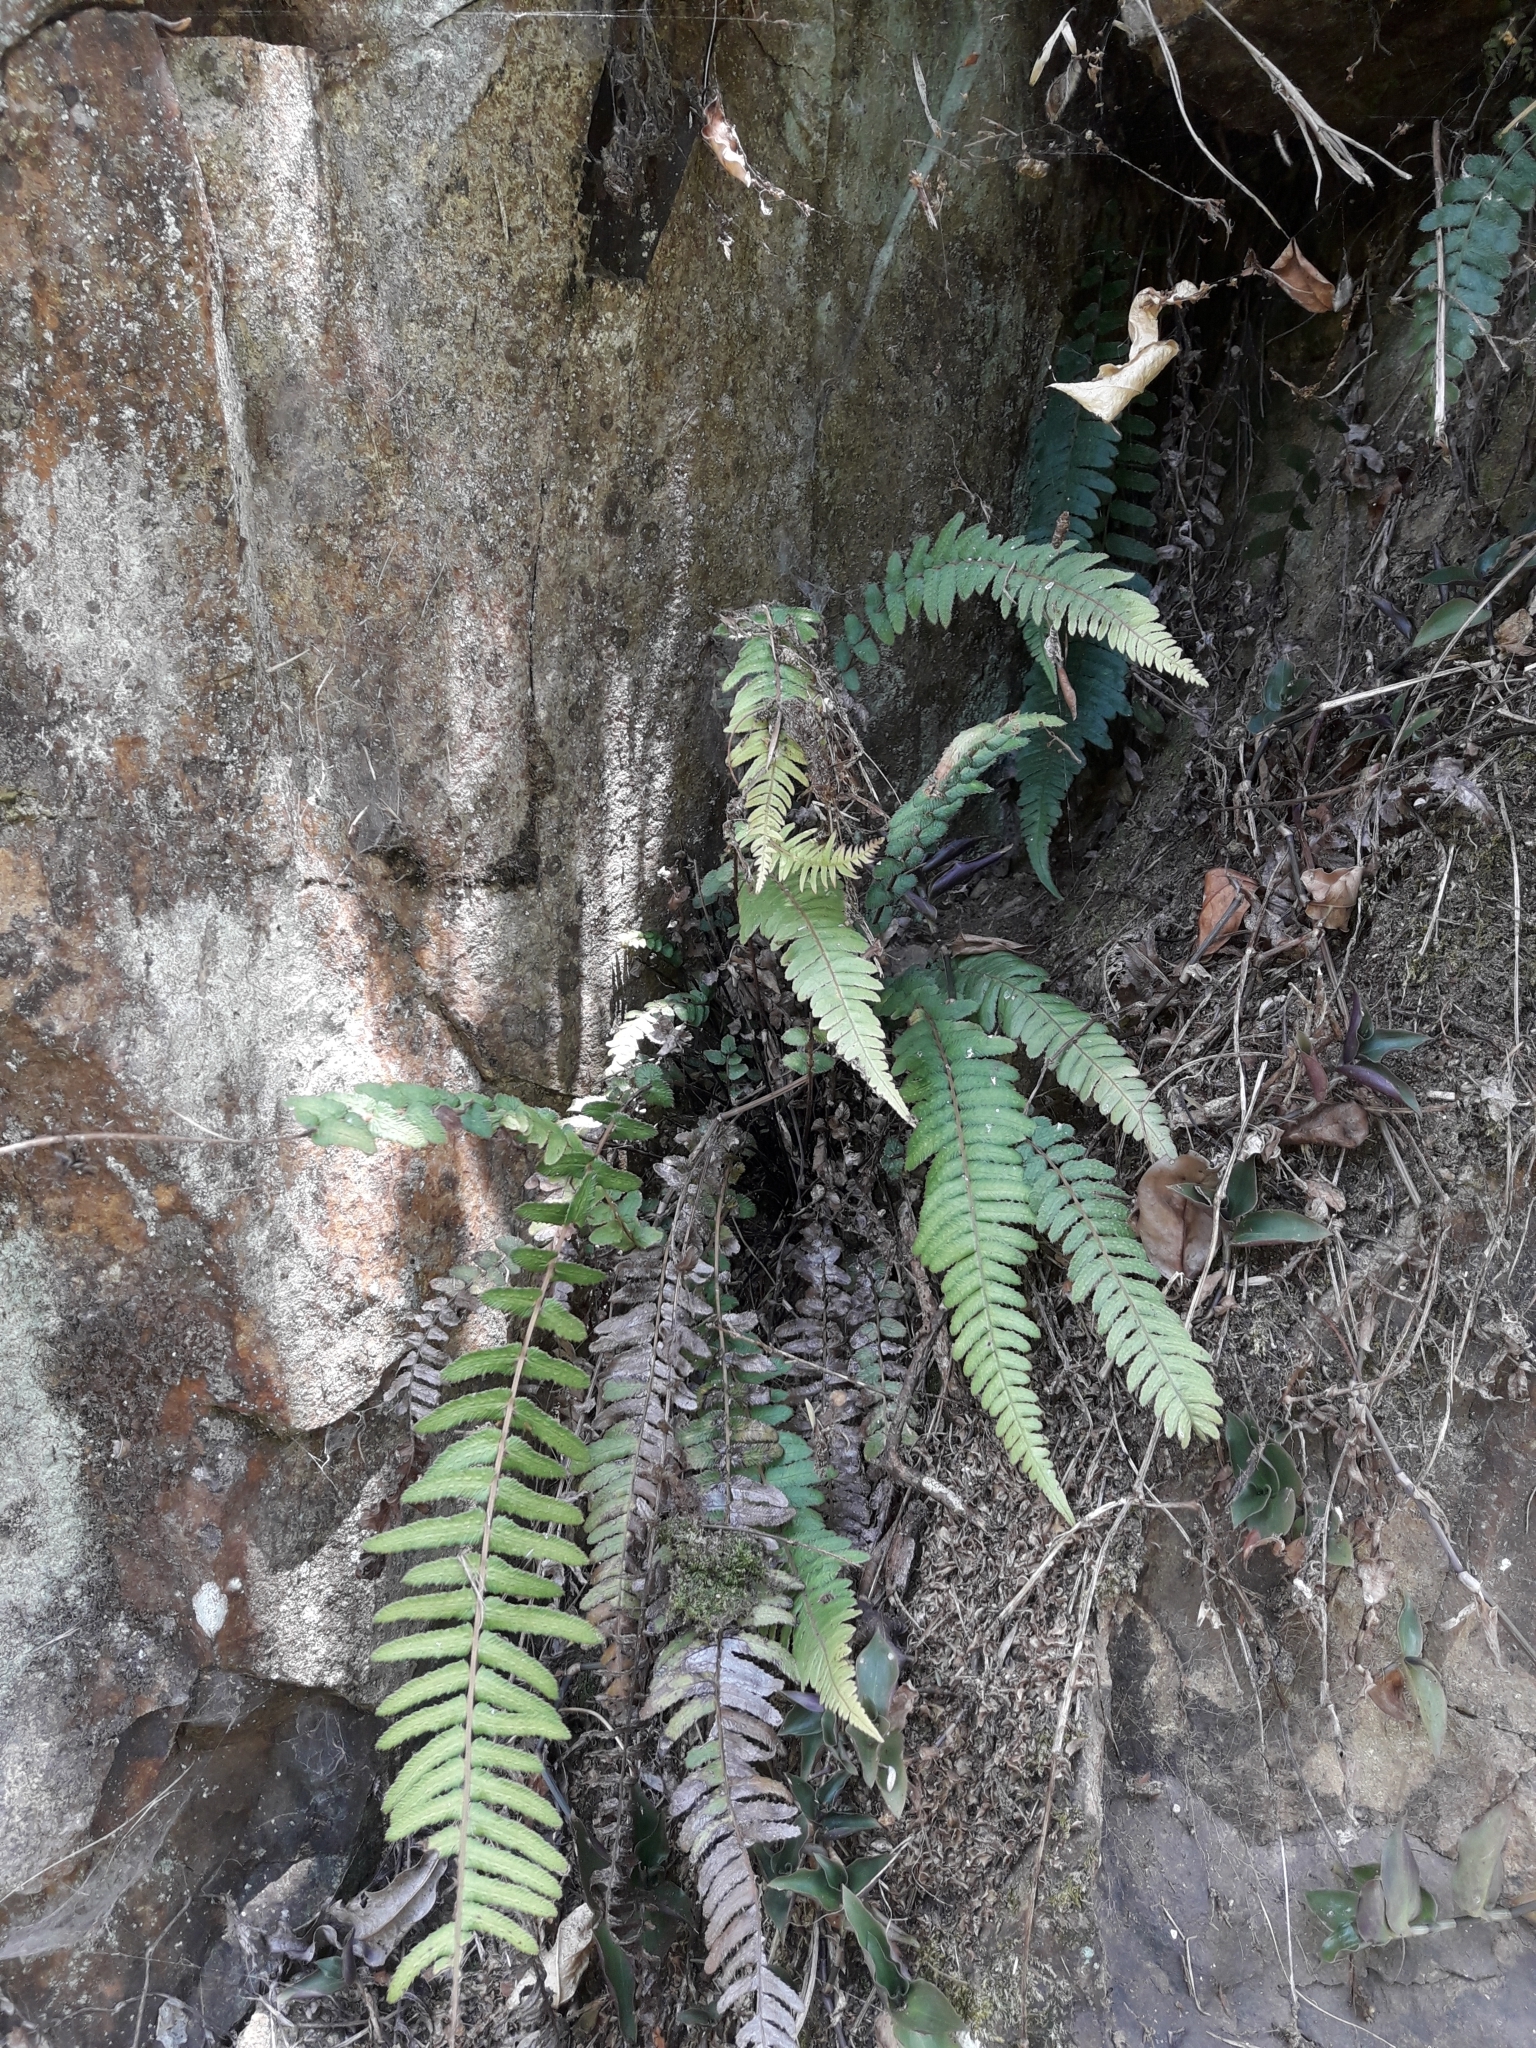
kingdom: Plantae
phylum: Tracheophyta
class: Polypodiopsida
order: Polypodiales
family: Blechnaceae
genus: Doodia
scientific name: Doodia australis
